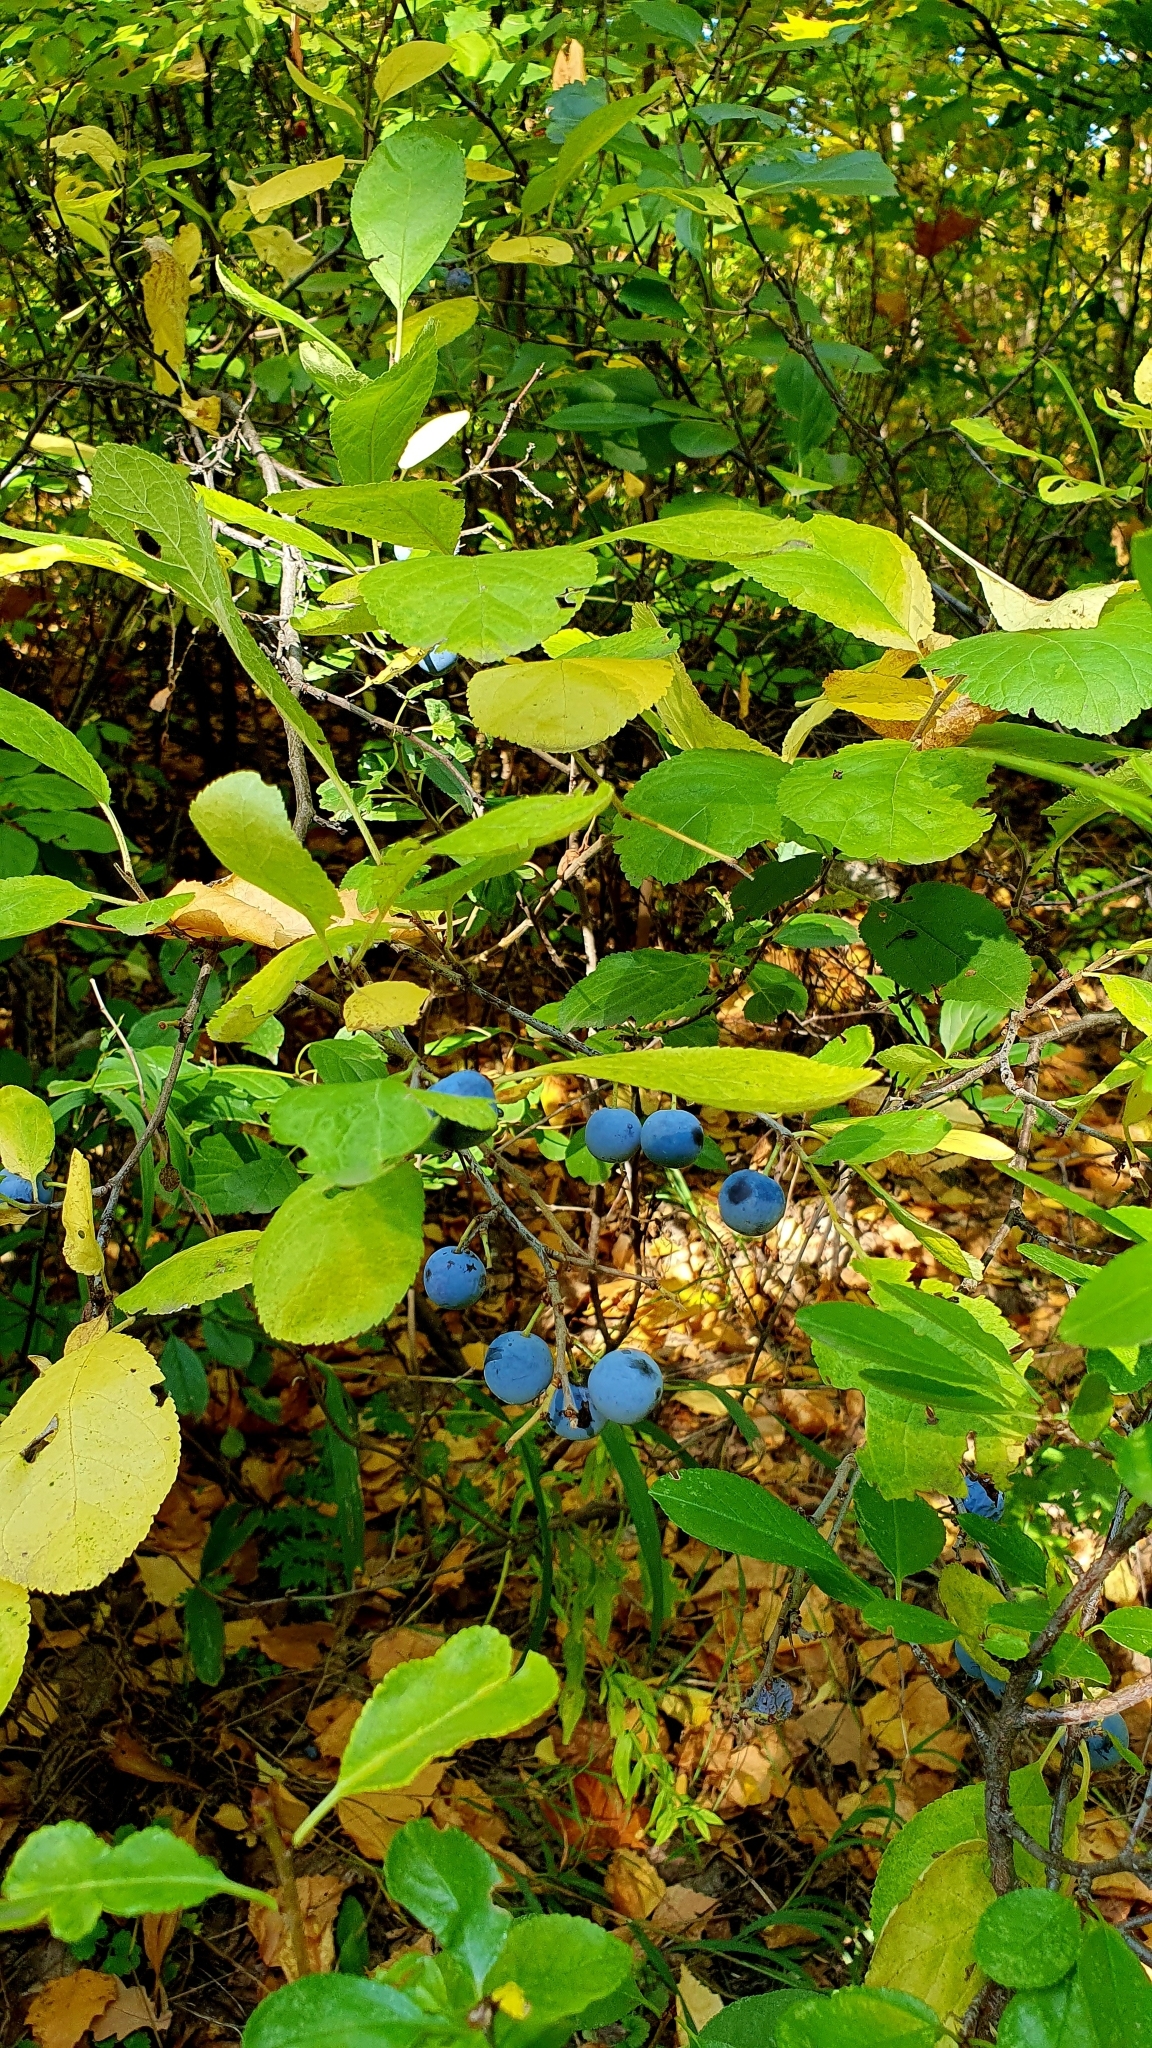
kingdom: Plantae
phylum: Tracheophyta
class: Magnoliopsida
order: Rosales
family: Rosaceae
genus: Prunus
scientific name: Prunus spinosa
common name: Blackthorn
